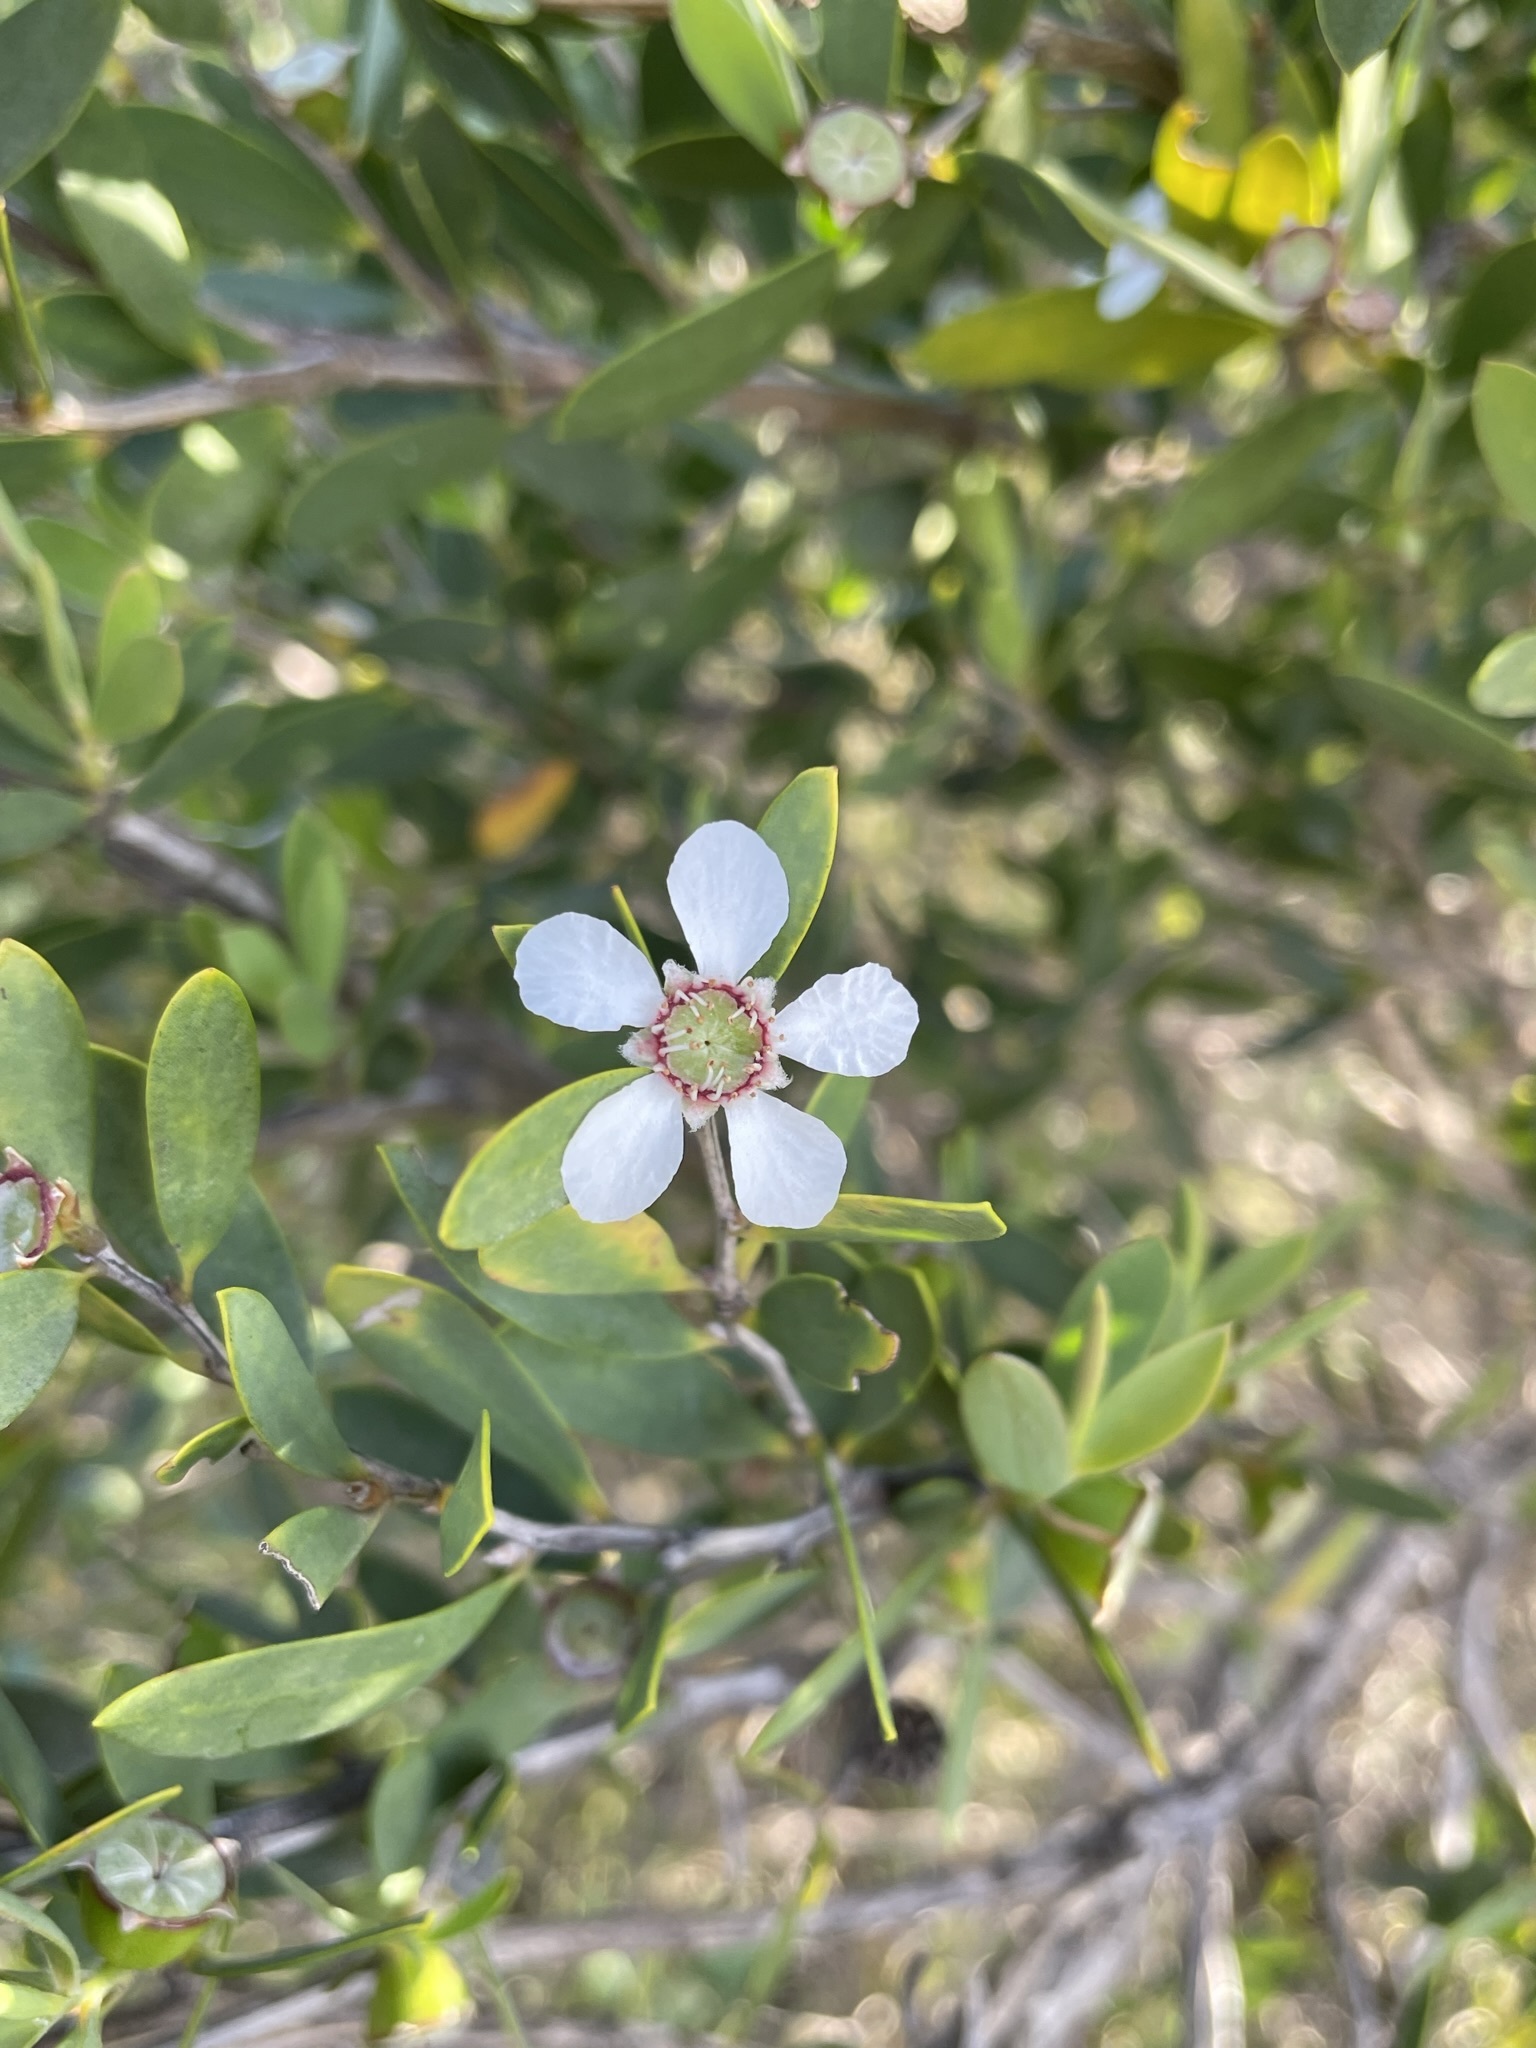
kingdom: Plantae
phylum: Tracheophyta
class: Magnoliopsida
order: Myrtales
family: Myrtaceae
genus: Leptospermum
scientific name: Leptospermum laevigatum
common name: Australian teatree
